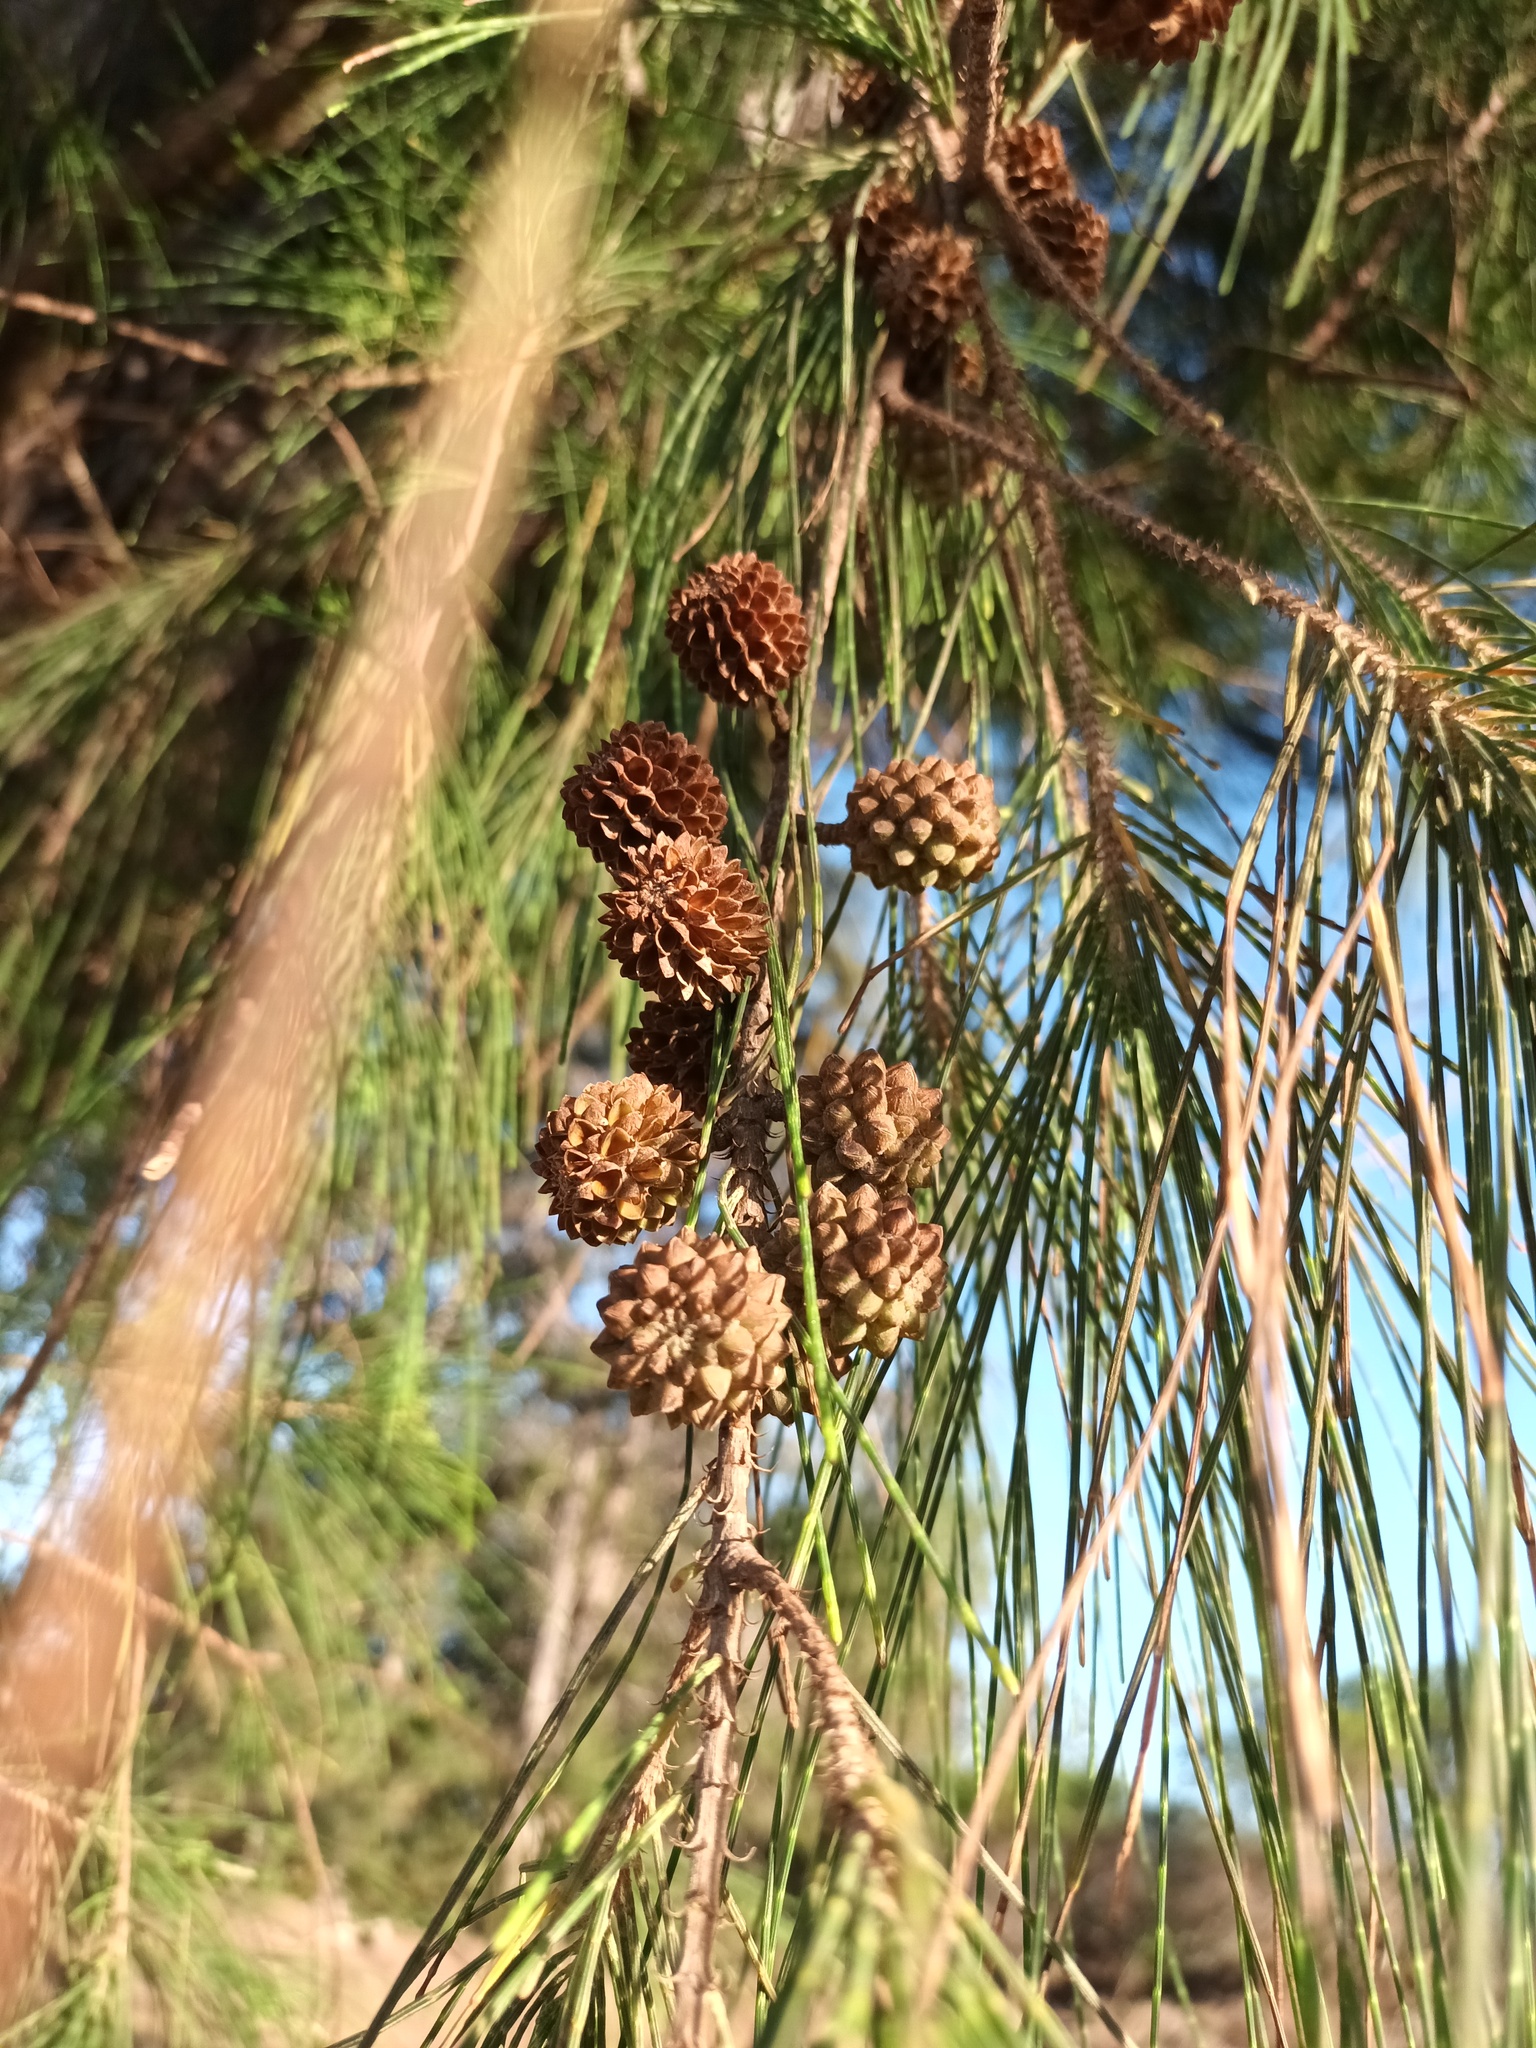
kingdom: Plantae
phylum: Tracheophyta
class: Magnoliopsida
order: Fagales
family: Casuarinaceae
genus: Casuarina
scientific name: Casuarina equisetifolia
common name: Beach sheoak
